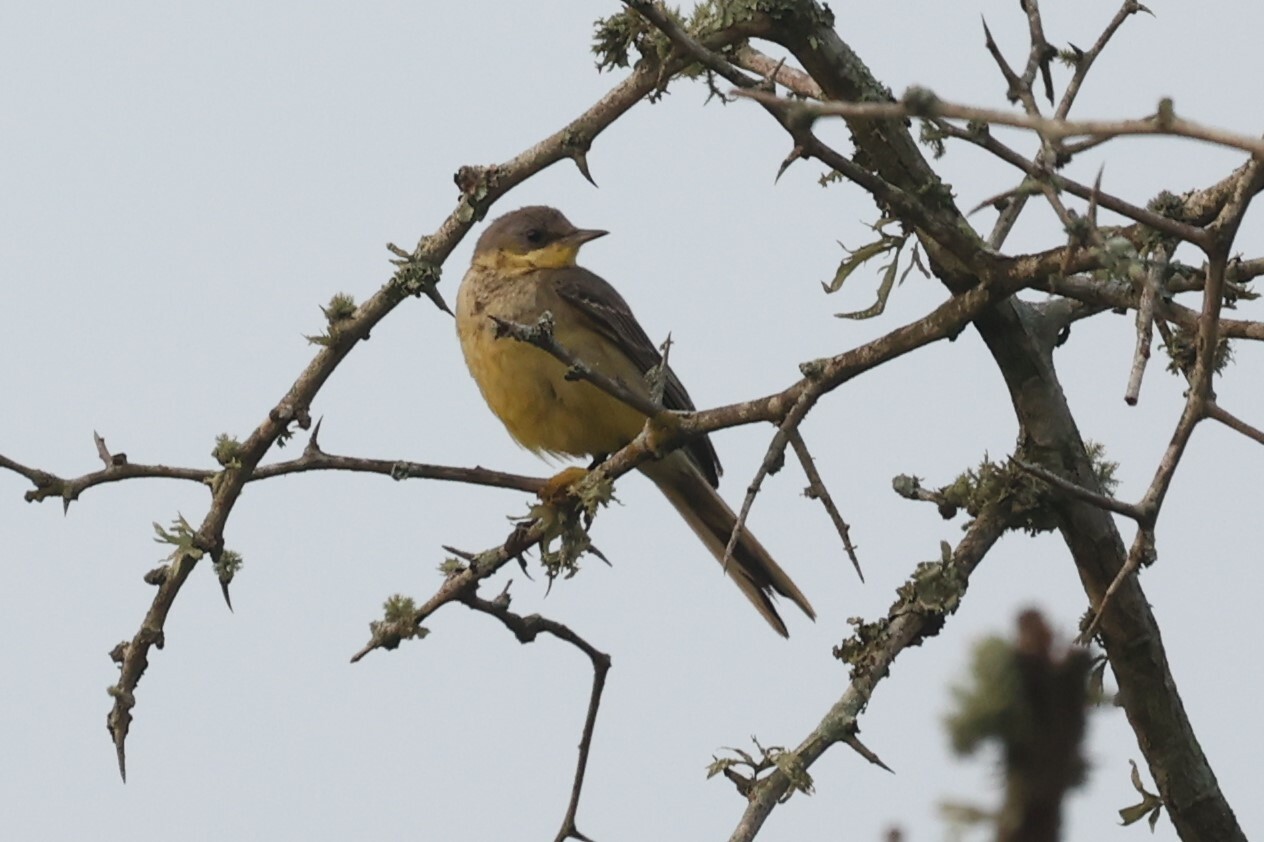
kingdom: Animalia
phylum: Chordata
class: Aves
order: Passeriformes
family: Motacillidae
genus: Motacilla
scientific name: Motacilla flava
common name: Western yellow wagtail
